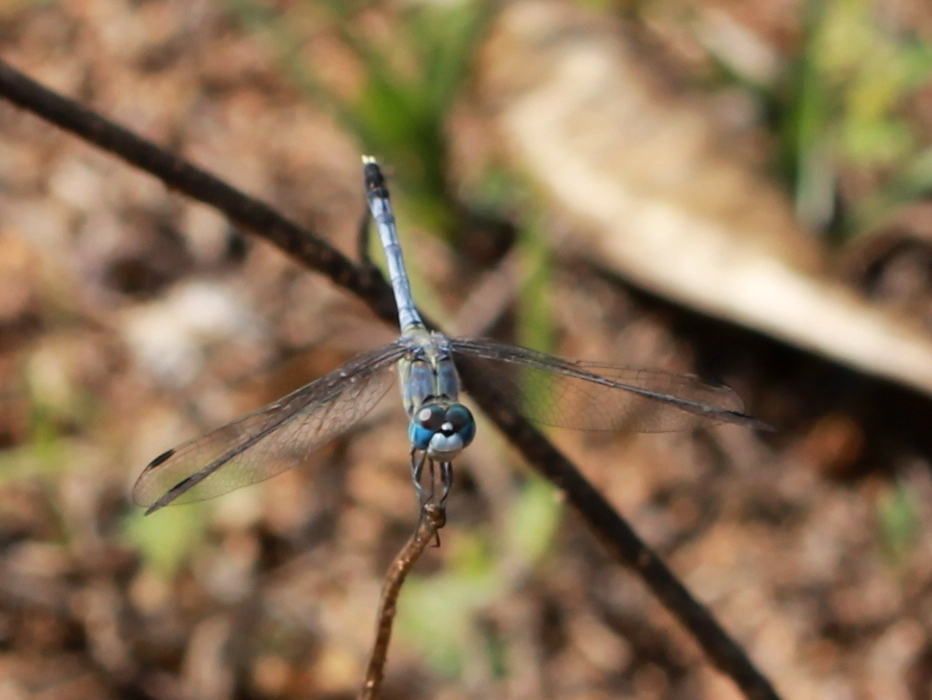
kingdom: Animalia
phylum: Arthropoda
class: Insecta
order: Odonata
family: Libellulidae
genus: Diplacodes
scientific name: Diplacodes trivialis
